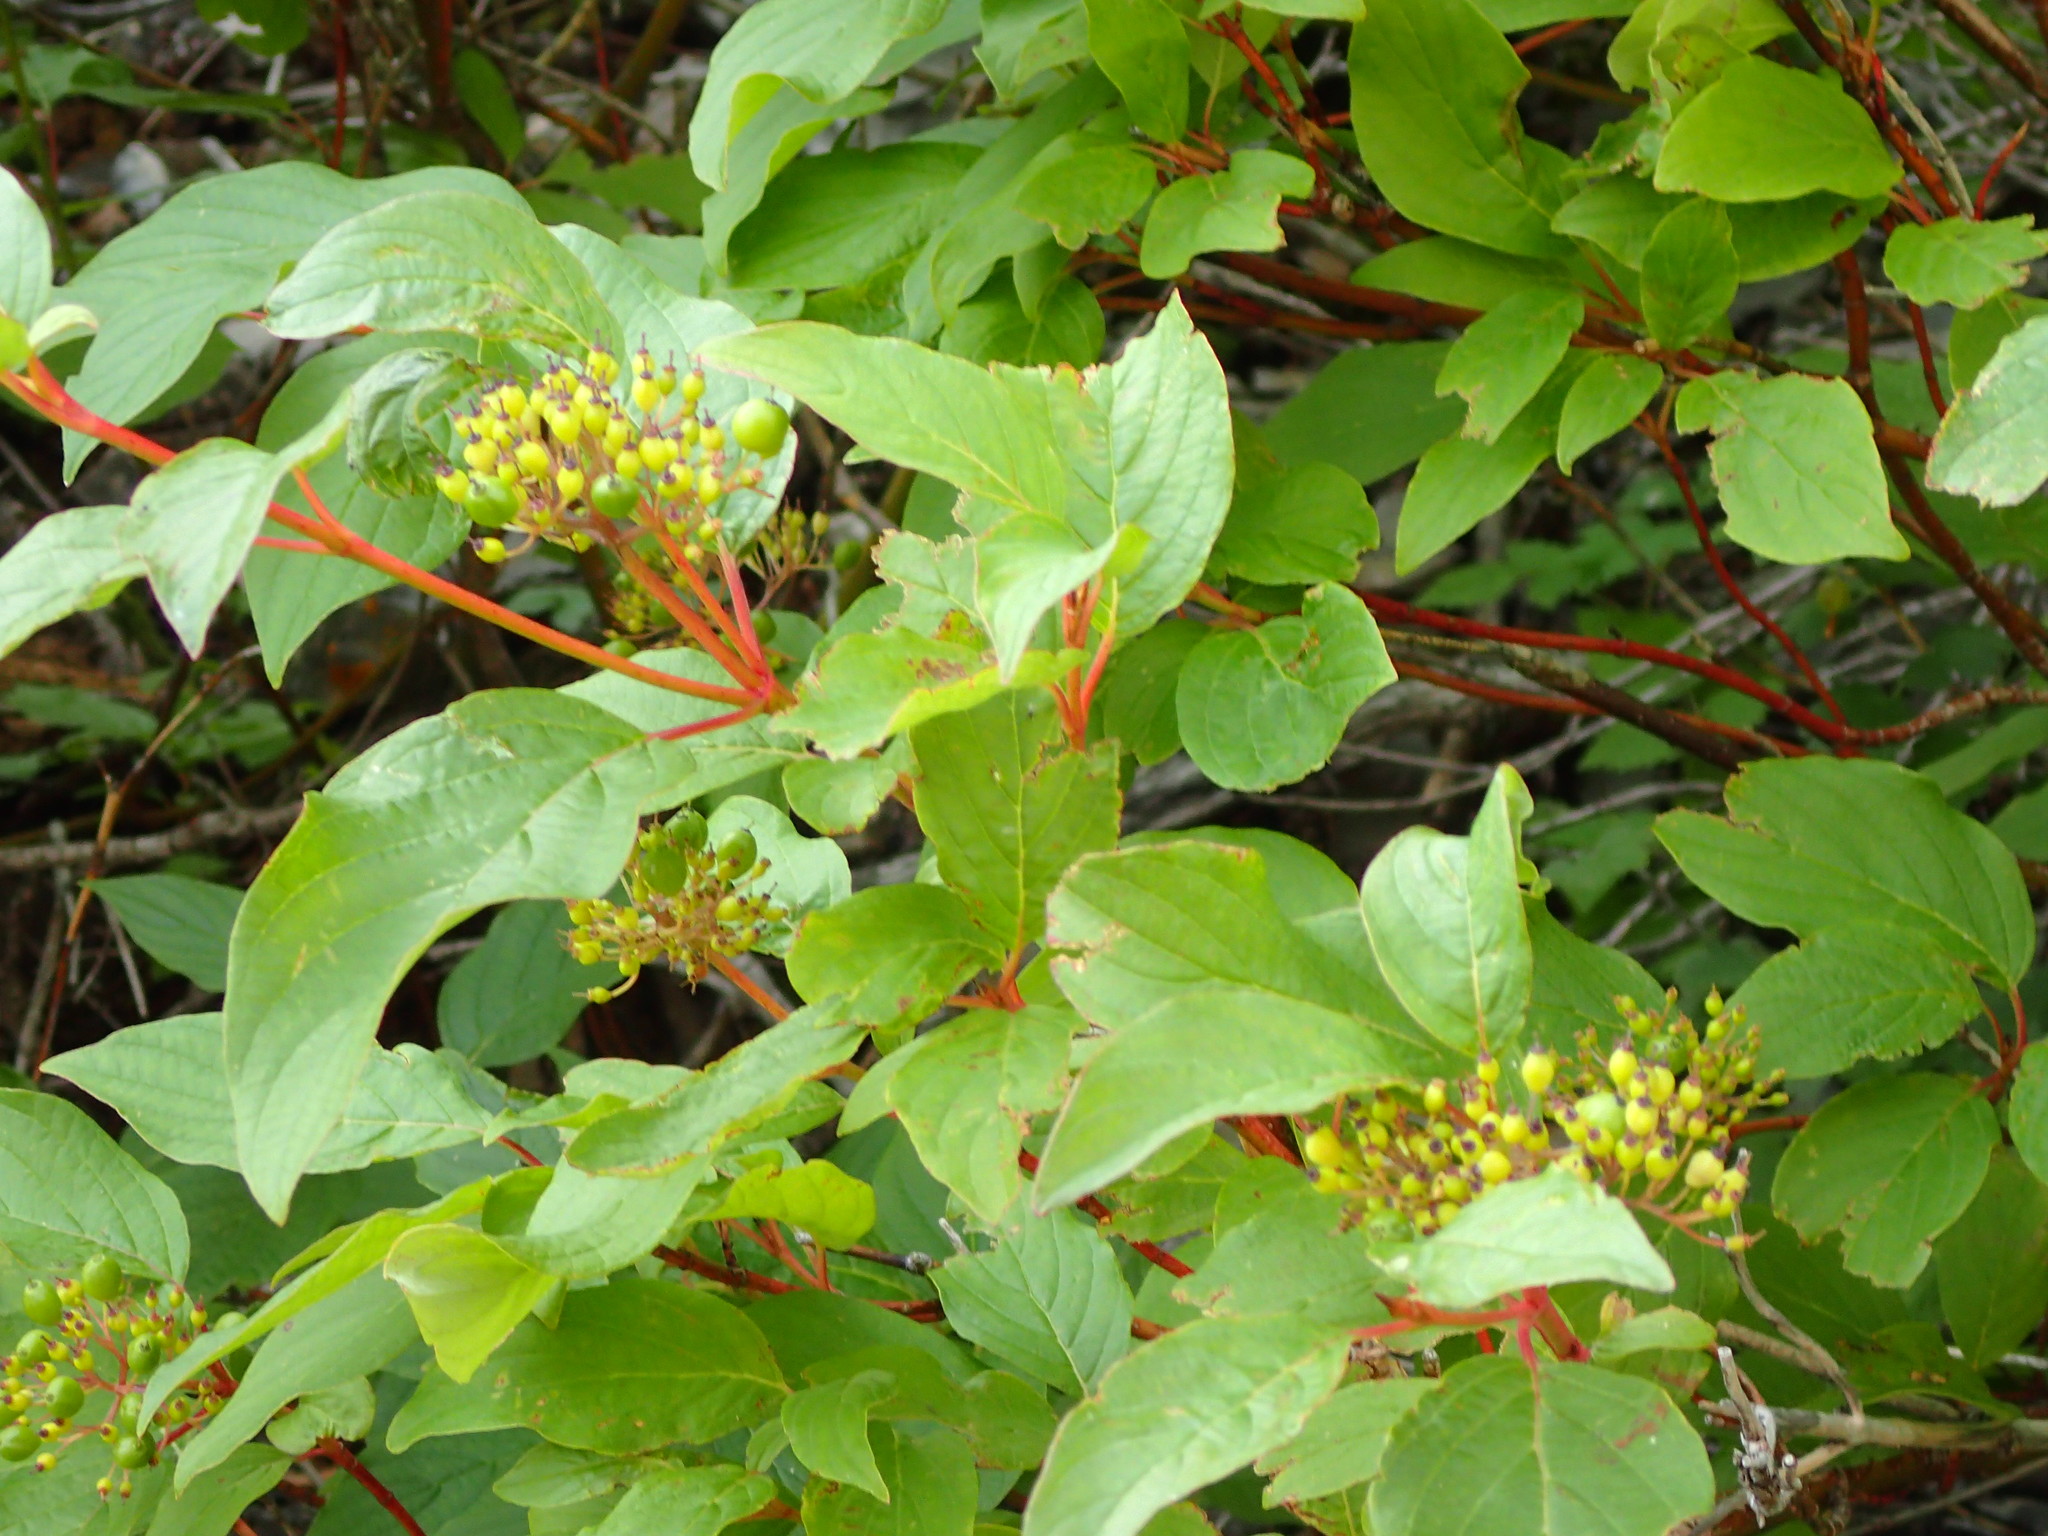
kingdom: Plantae
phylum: Tracheophyta
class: Magnoliopsida
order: Cornales
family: Cornaceae
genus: Cornus
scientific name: Cornus sericea
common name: Red-osier dogwood
